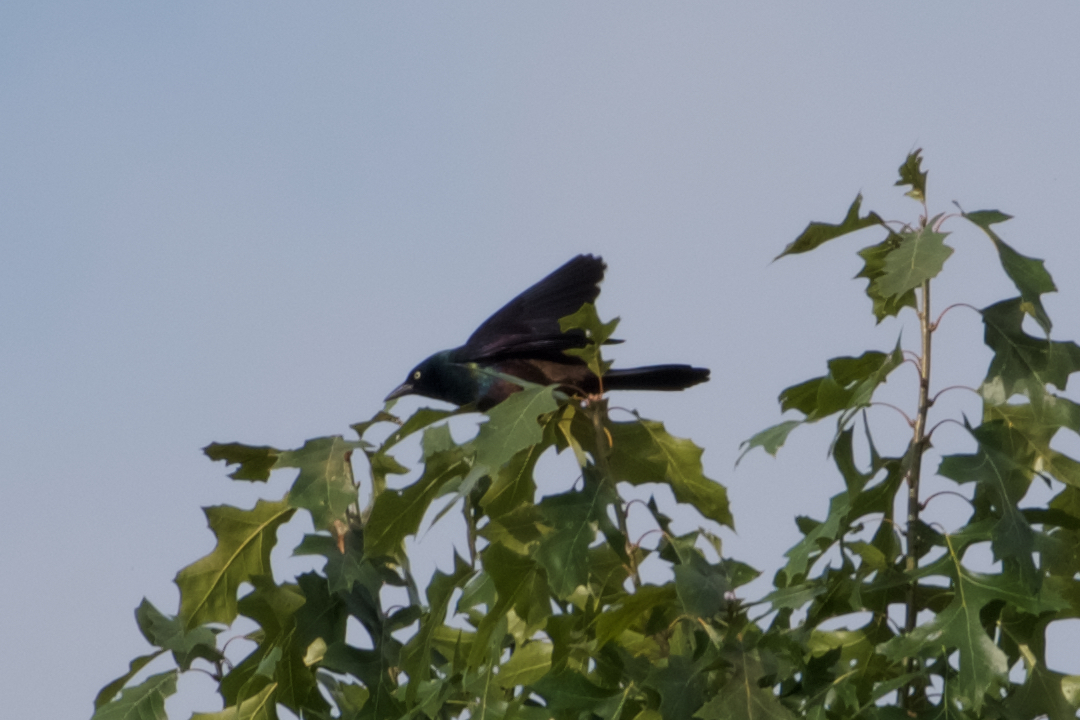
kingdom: Animalia
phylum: Chordata
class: Aves
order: Passeriformes
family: Icteridae
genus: Quiscalus
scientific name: Quiscalus quiscula
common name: Common grackle
